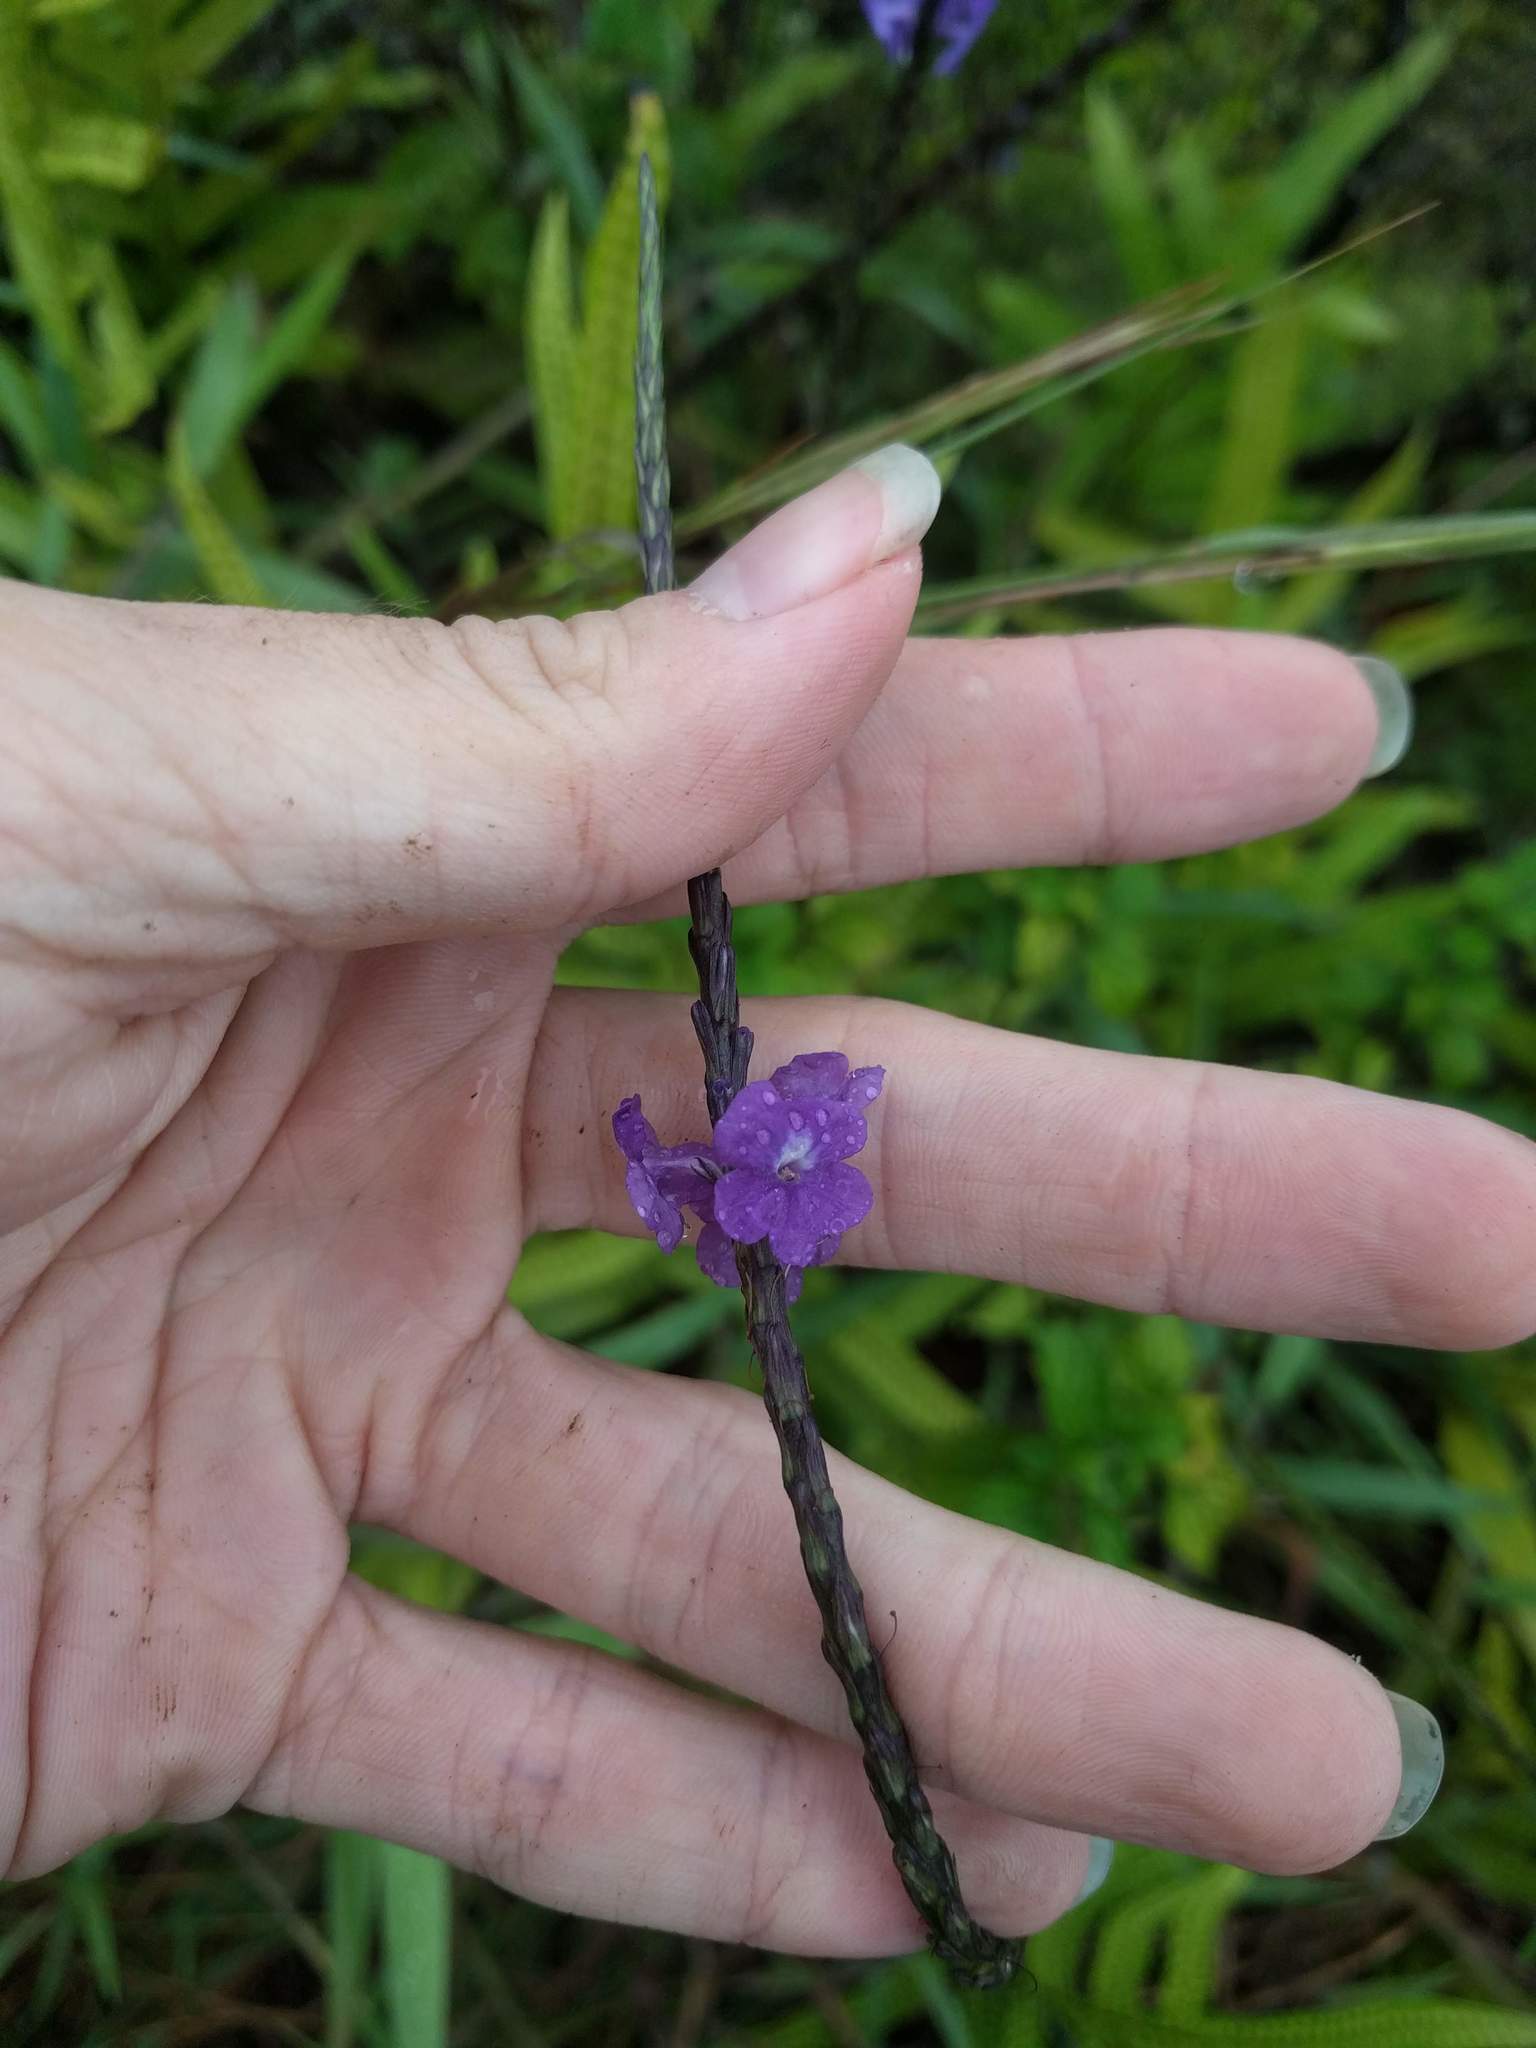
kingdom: Plantae
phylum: Tracheophyta
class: Magnoliopsida
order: Lamiales
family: Verbenaceae
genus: Stachytarpheta
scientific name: Stachytarpheta jamaicensis
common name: Light-blue snakeweed
